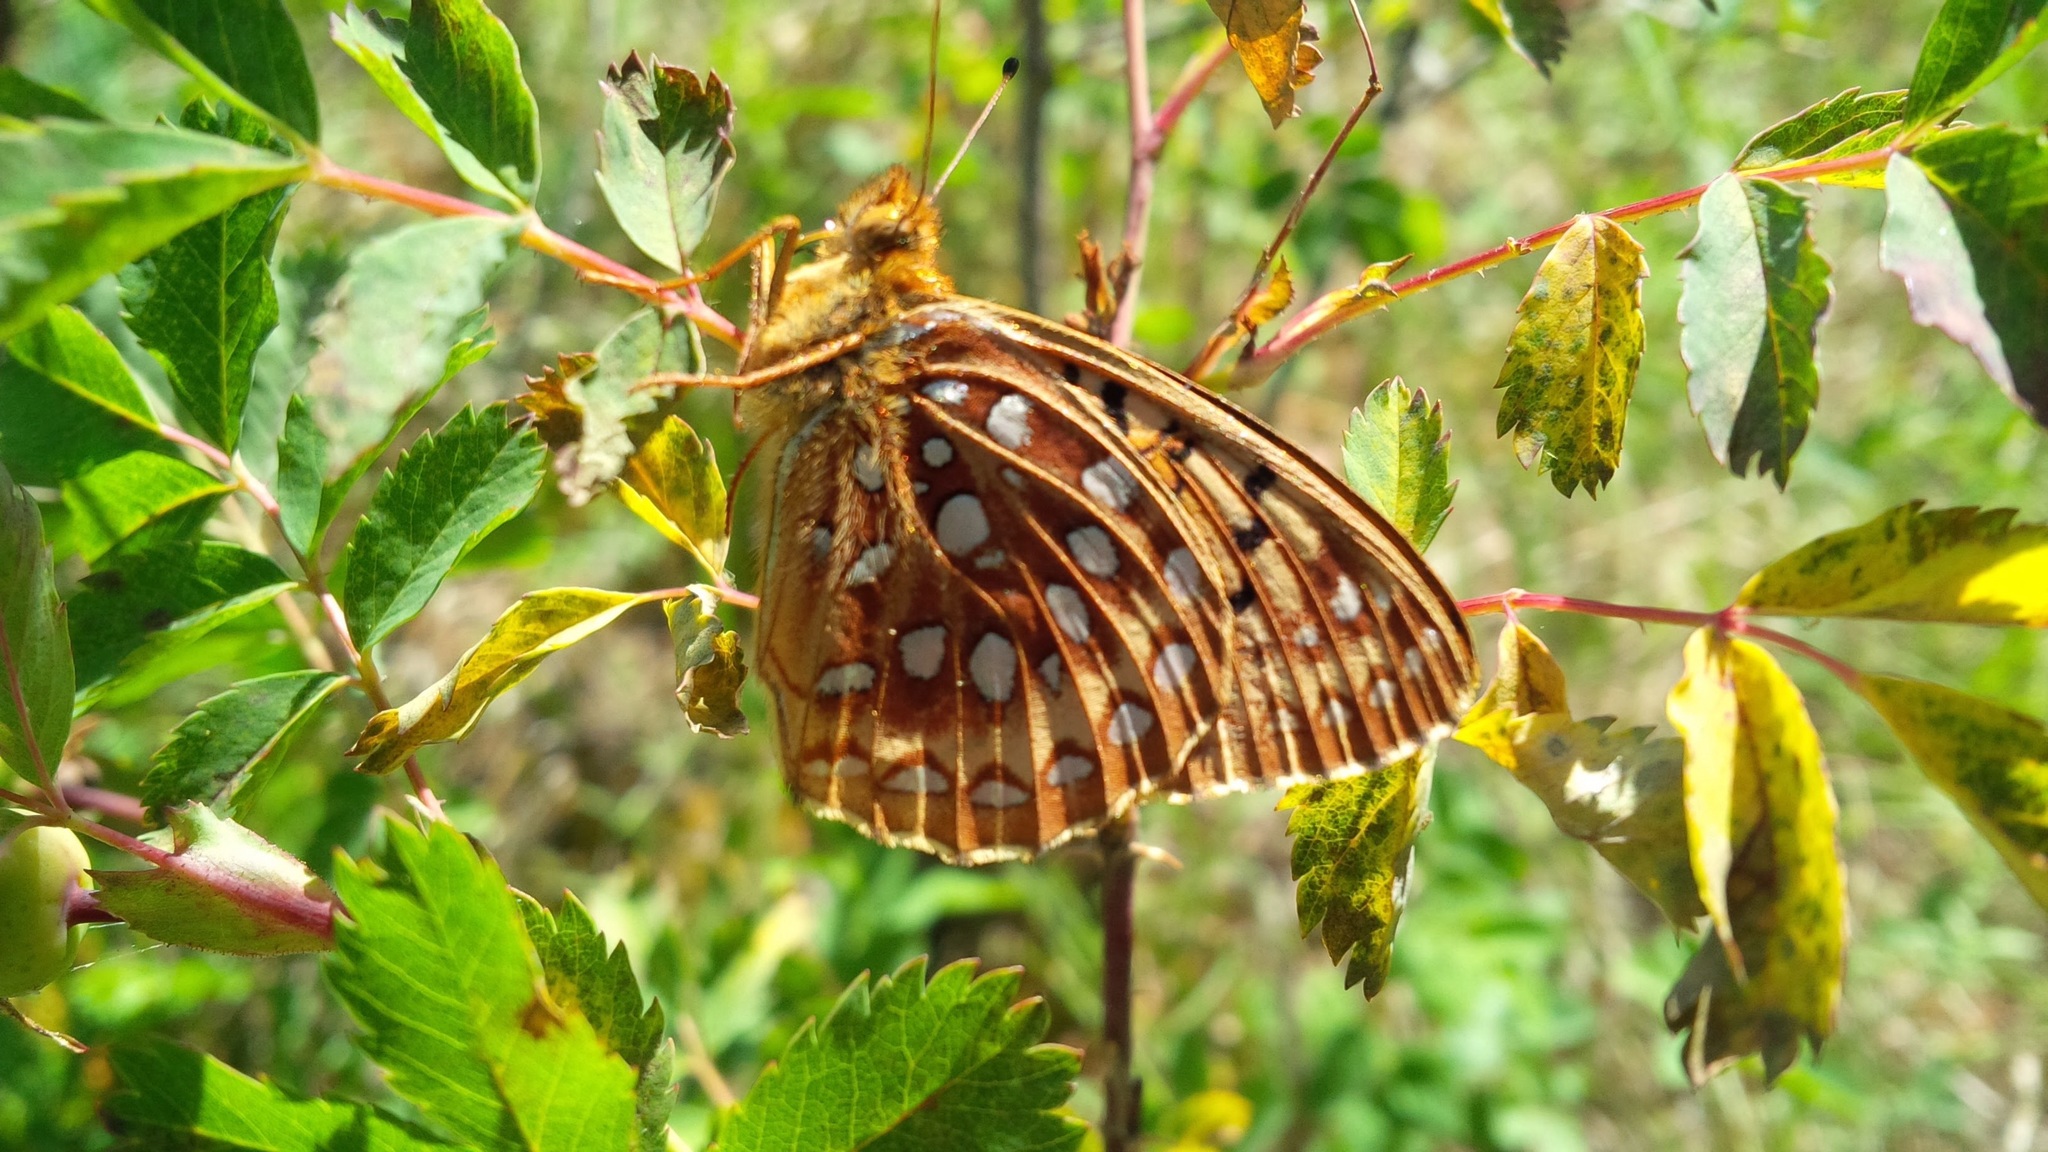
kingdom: Animalia
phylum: Arthropoda
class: Insecta
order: Lepidoptera
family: Nymphalidae
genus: Speyeria
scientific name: Speyeria aphrodite
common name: Aphrodite friitllary
